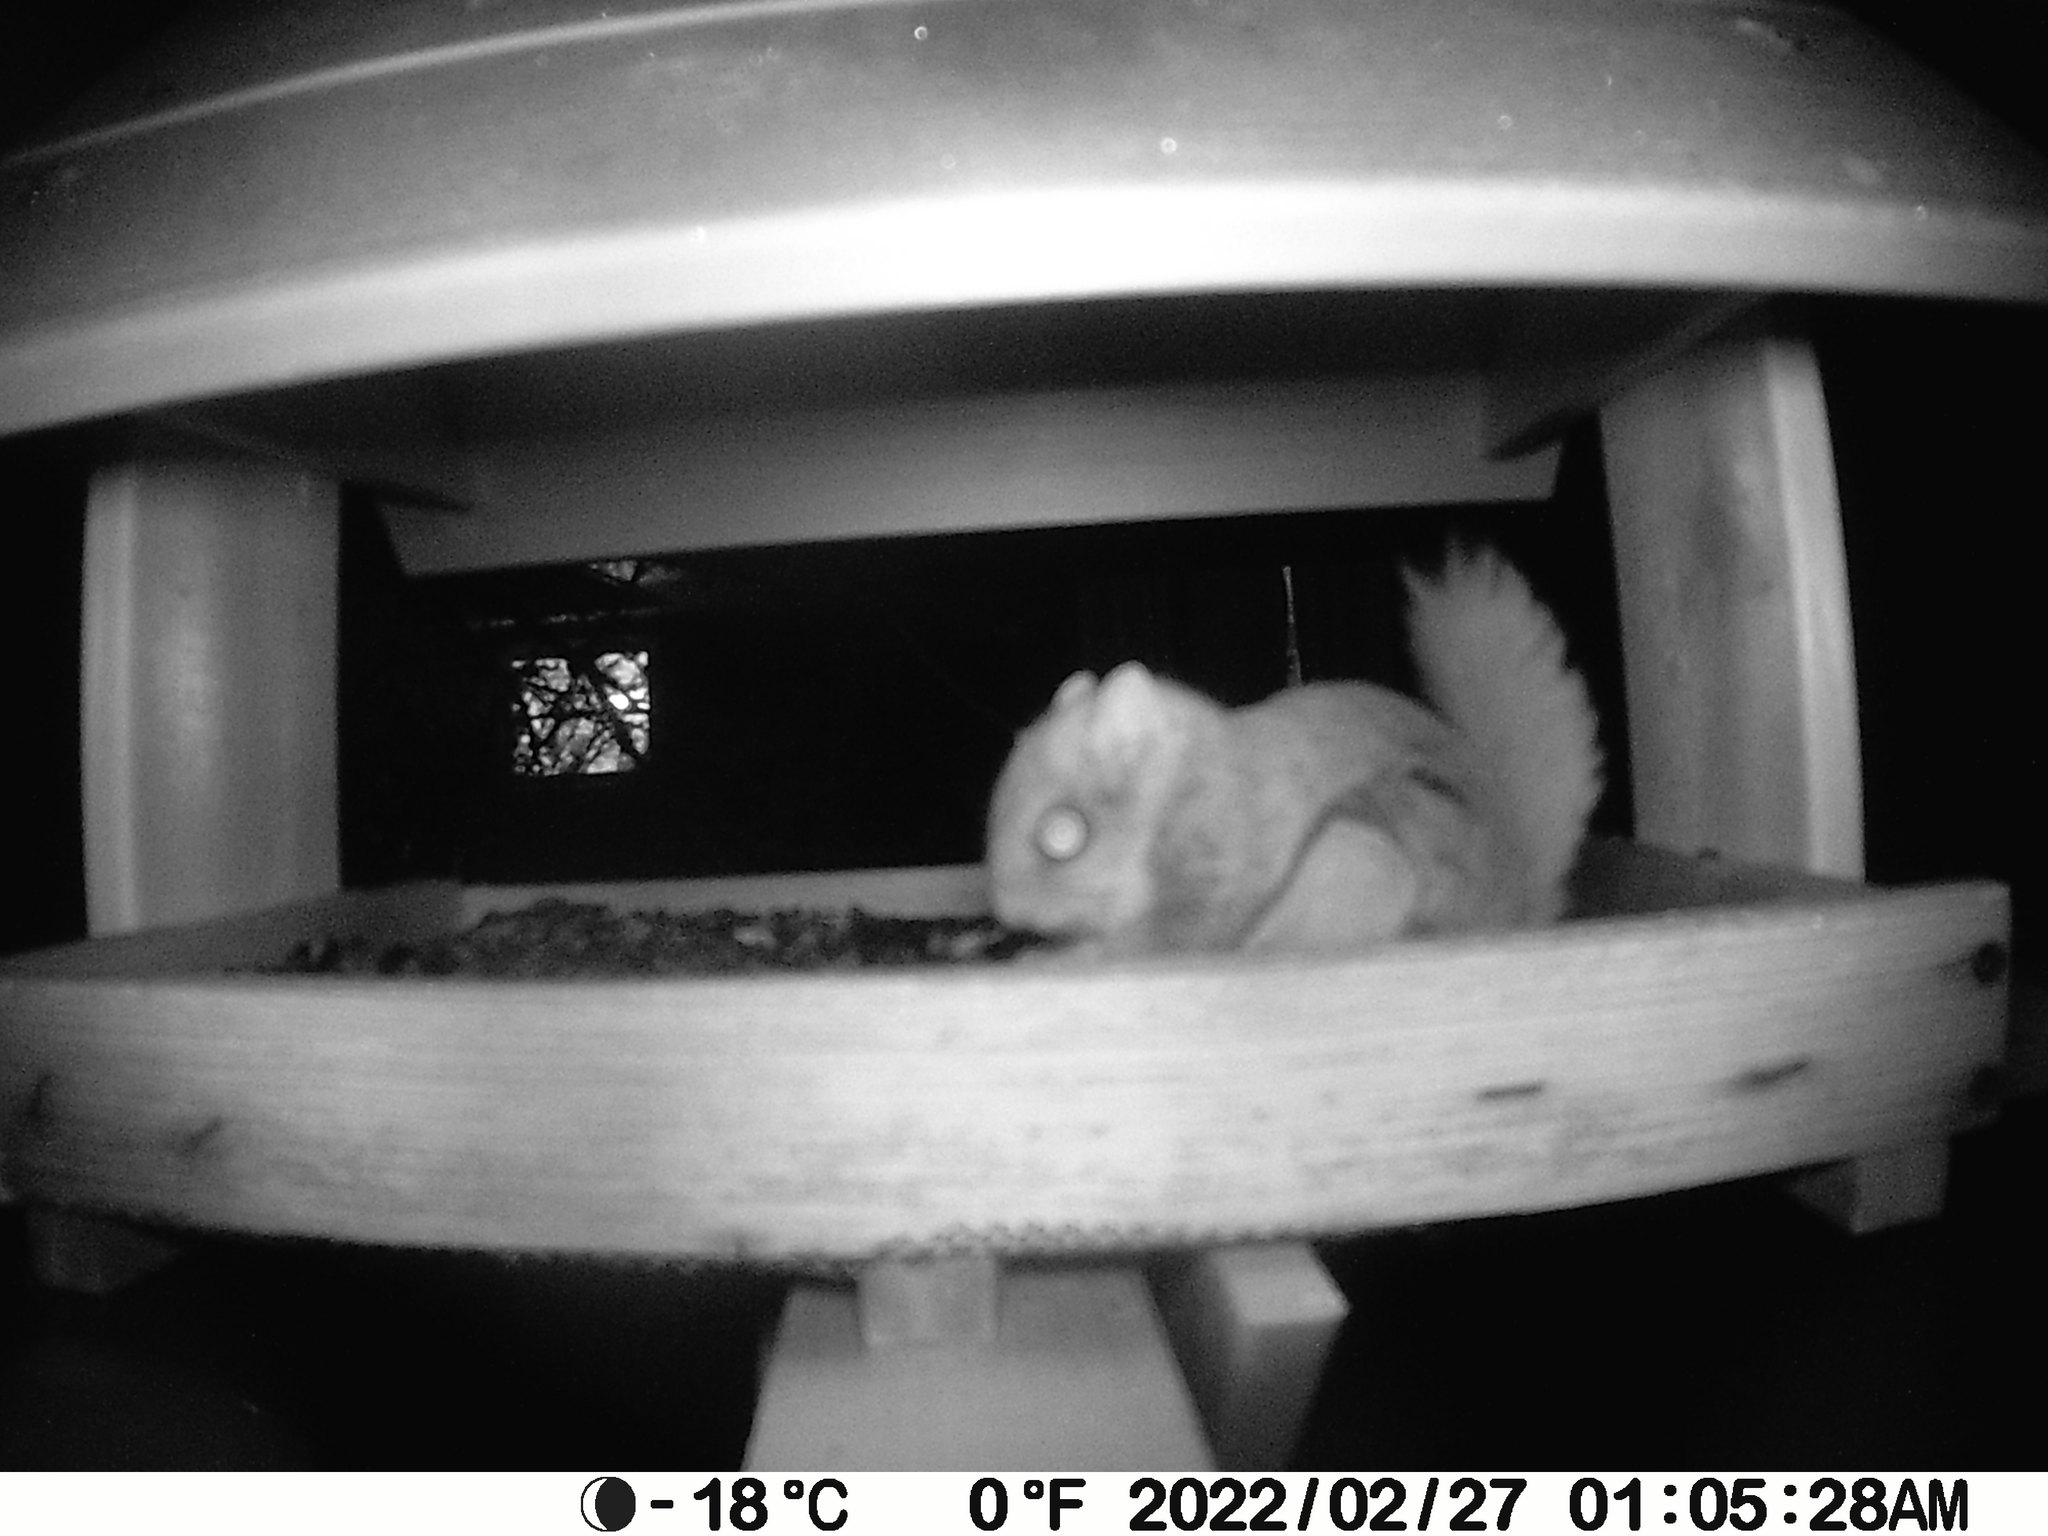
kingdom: Animalia
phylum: Chordata
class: Mammalia
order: Rodentia
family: Sciuridae
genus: Glaucomys
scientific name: Glaucomys sabrinus
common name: Northern flying squirrel
